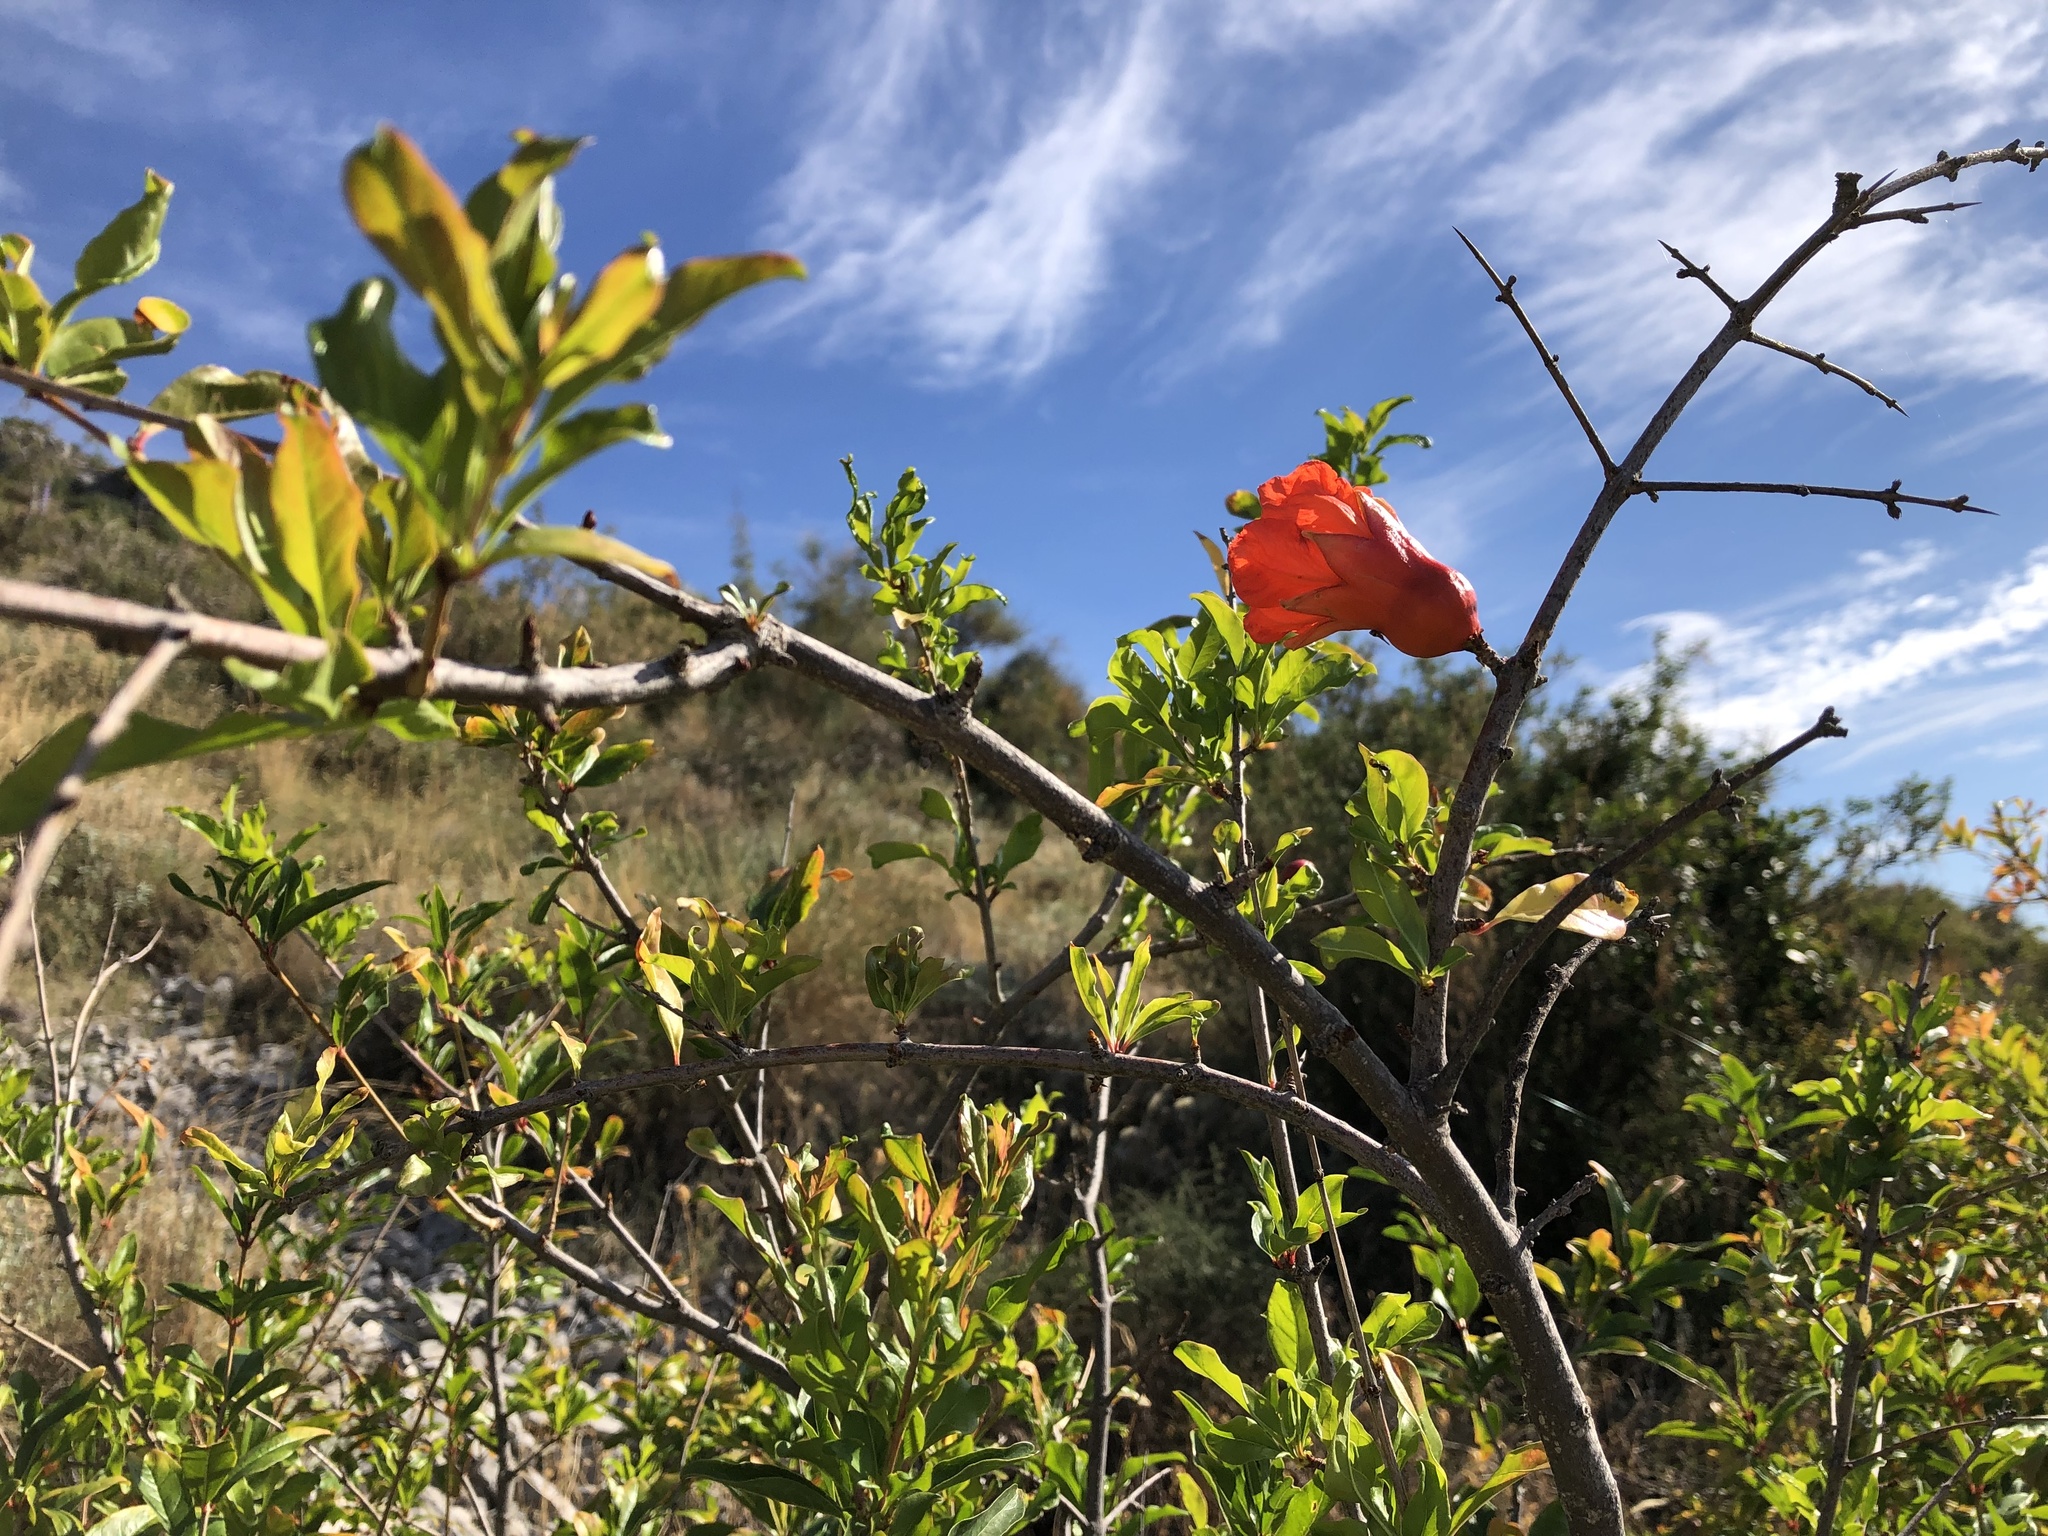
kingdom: Plantae
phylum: Tracheophyta
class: Magnoliopsida
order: Myrtales
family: Lythraceae
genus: Punica
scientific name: Punica granatum
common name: Pomegranate
